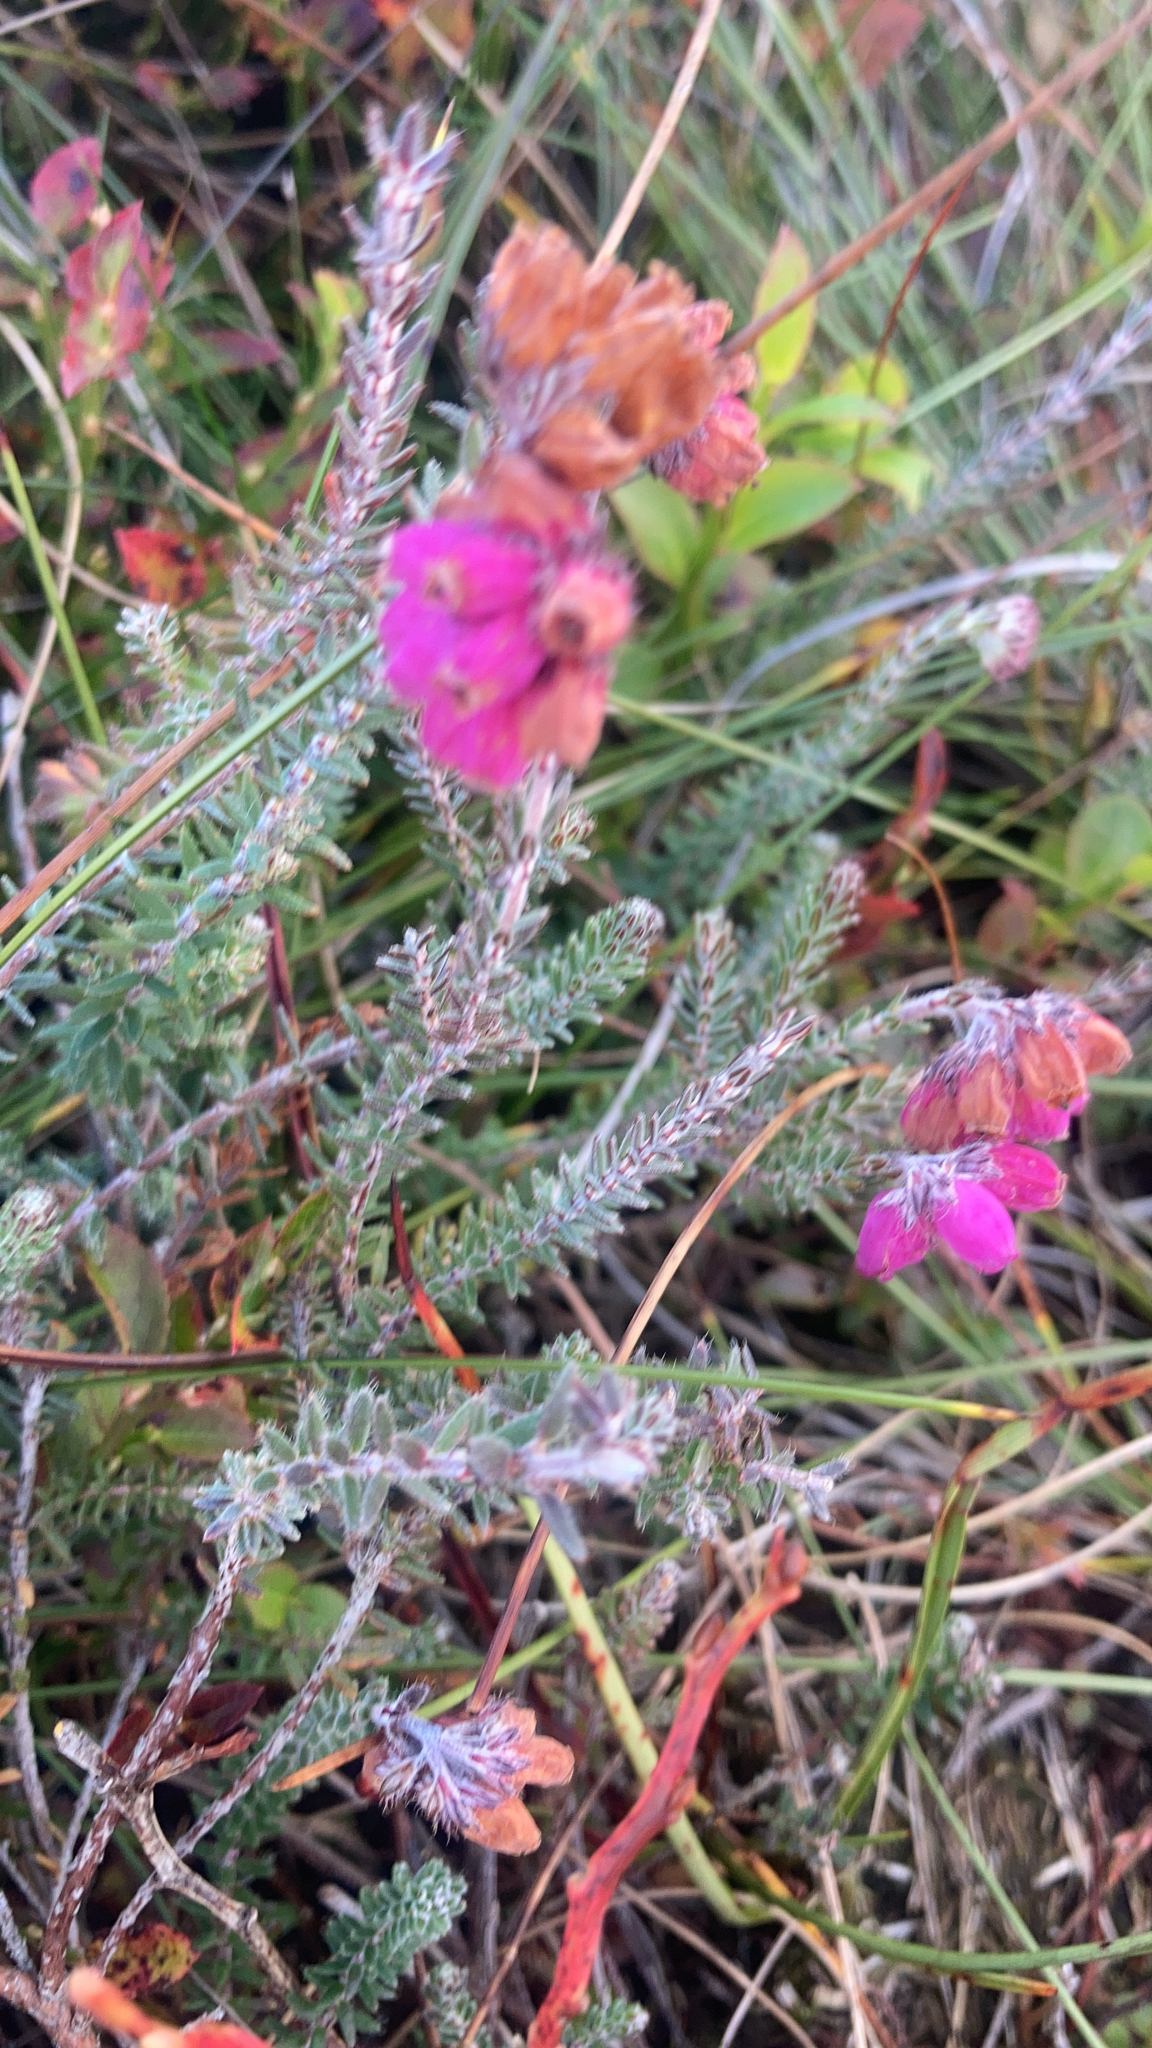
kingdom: Plantae
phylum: Tracheophyta
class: Magnoliopsida
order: Ericales
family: Ericaceae
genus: Erica
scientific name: Erica tetralix
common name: Cross-leaved heath
